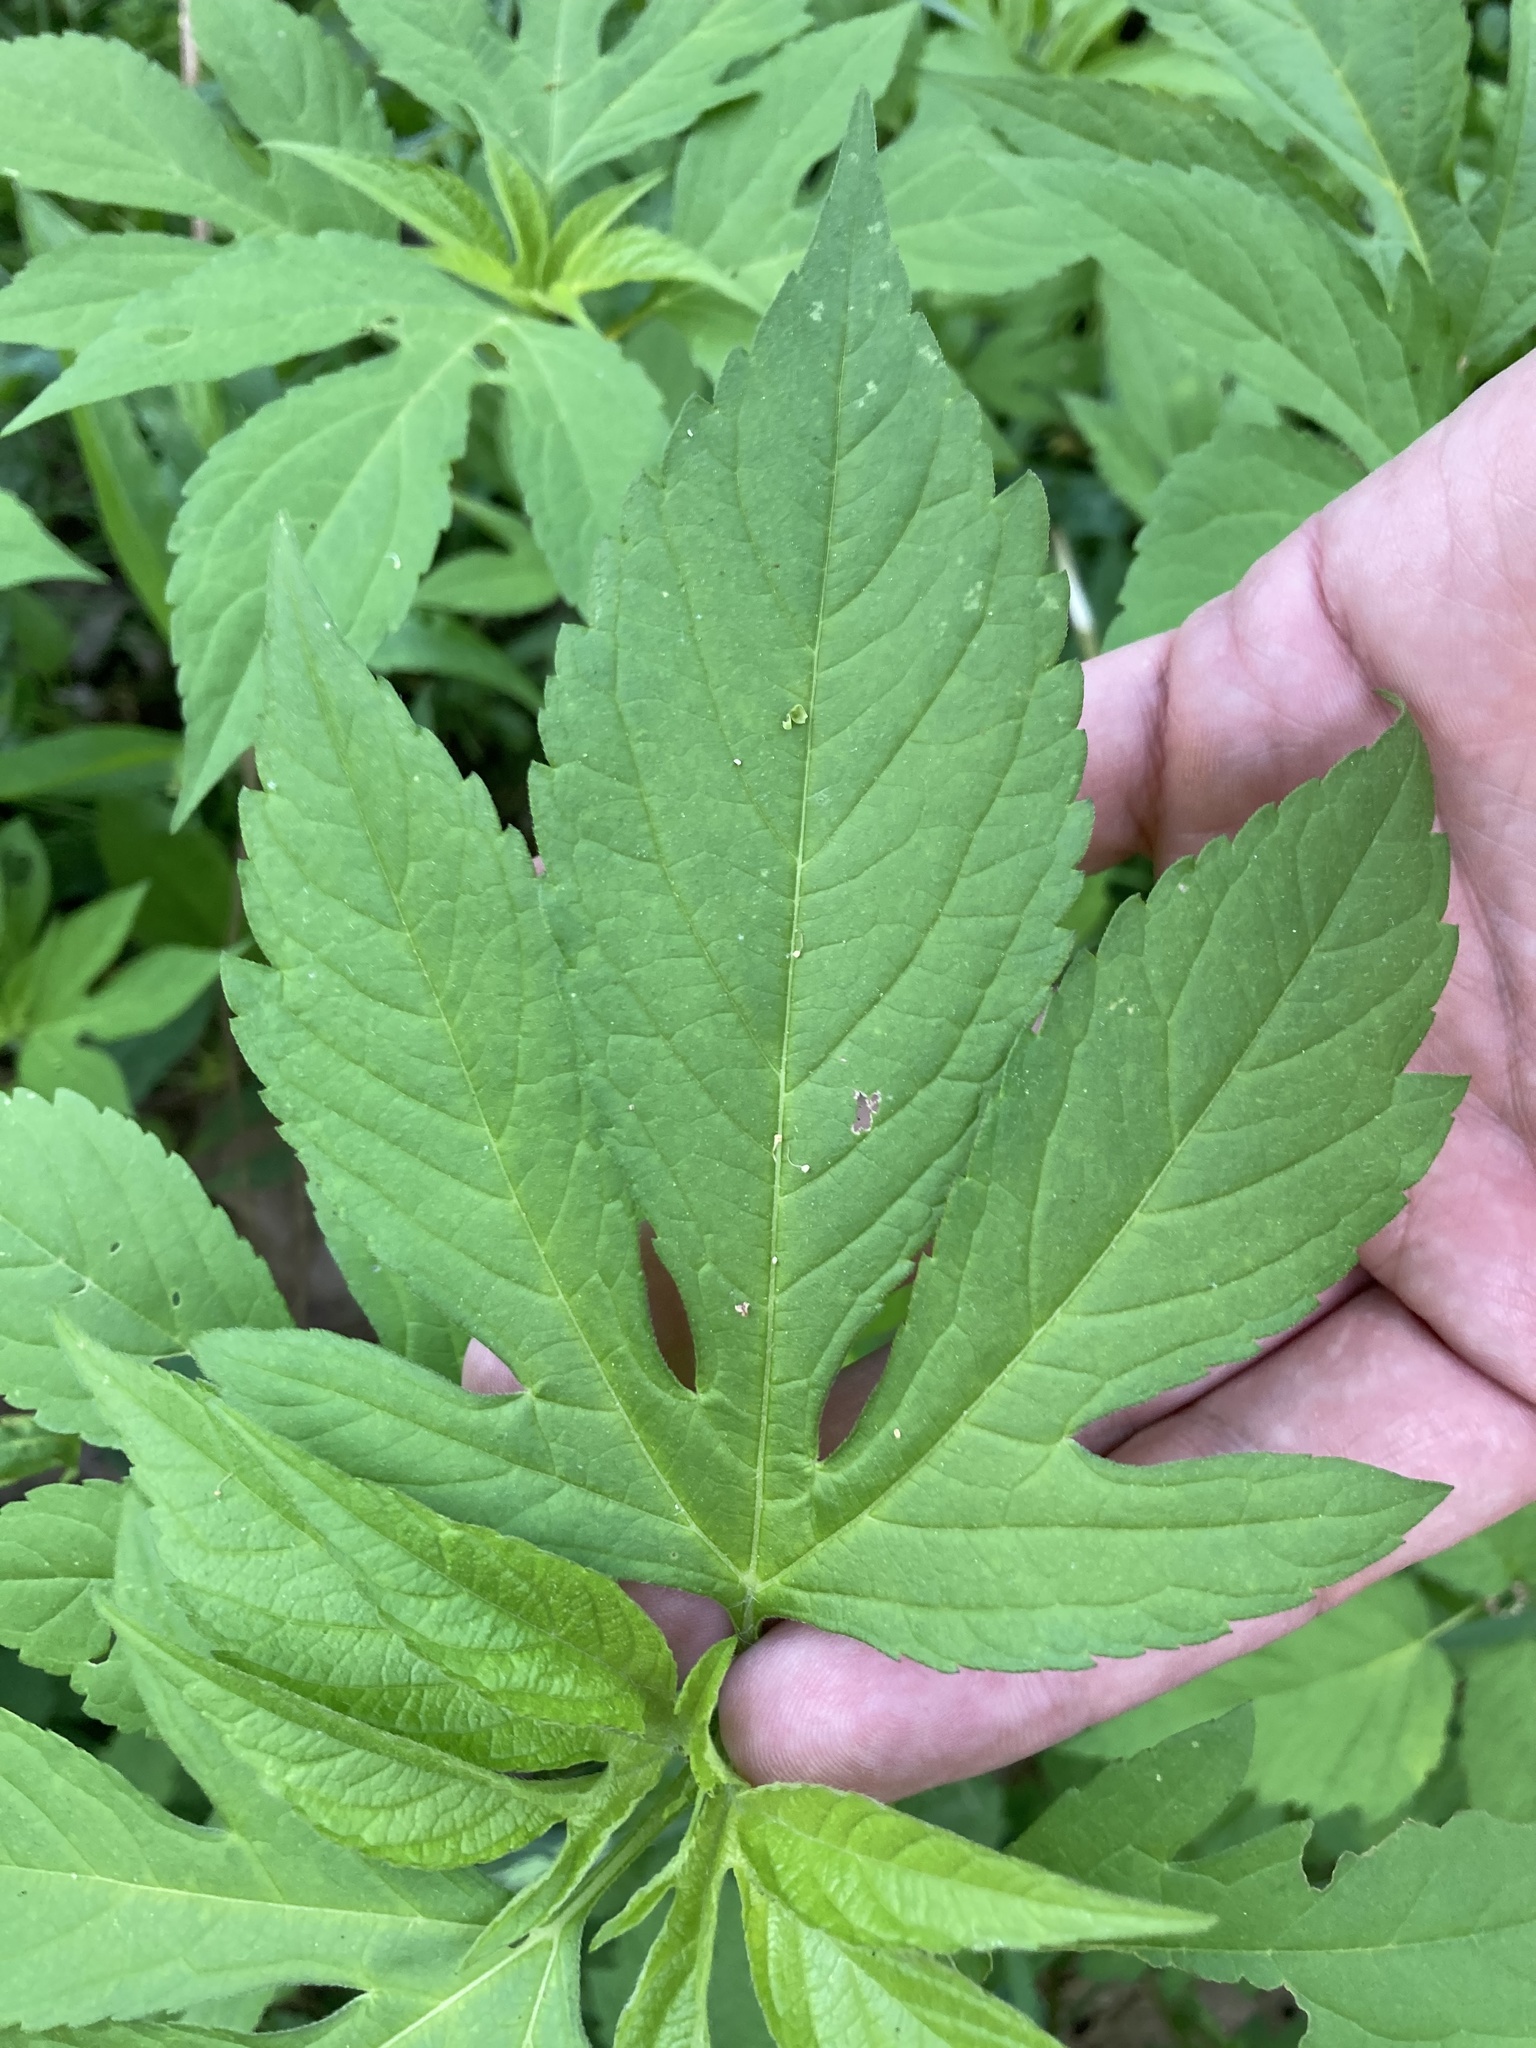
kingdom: Plantae
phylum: Tracheophyta
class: Magnoliopsida
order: Asterales
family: Asteraceae
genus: Ambrosia
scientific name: Ambrosia trifida
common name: Giant ragweed
